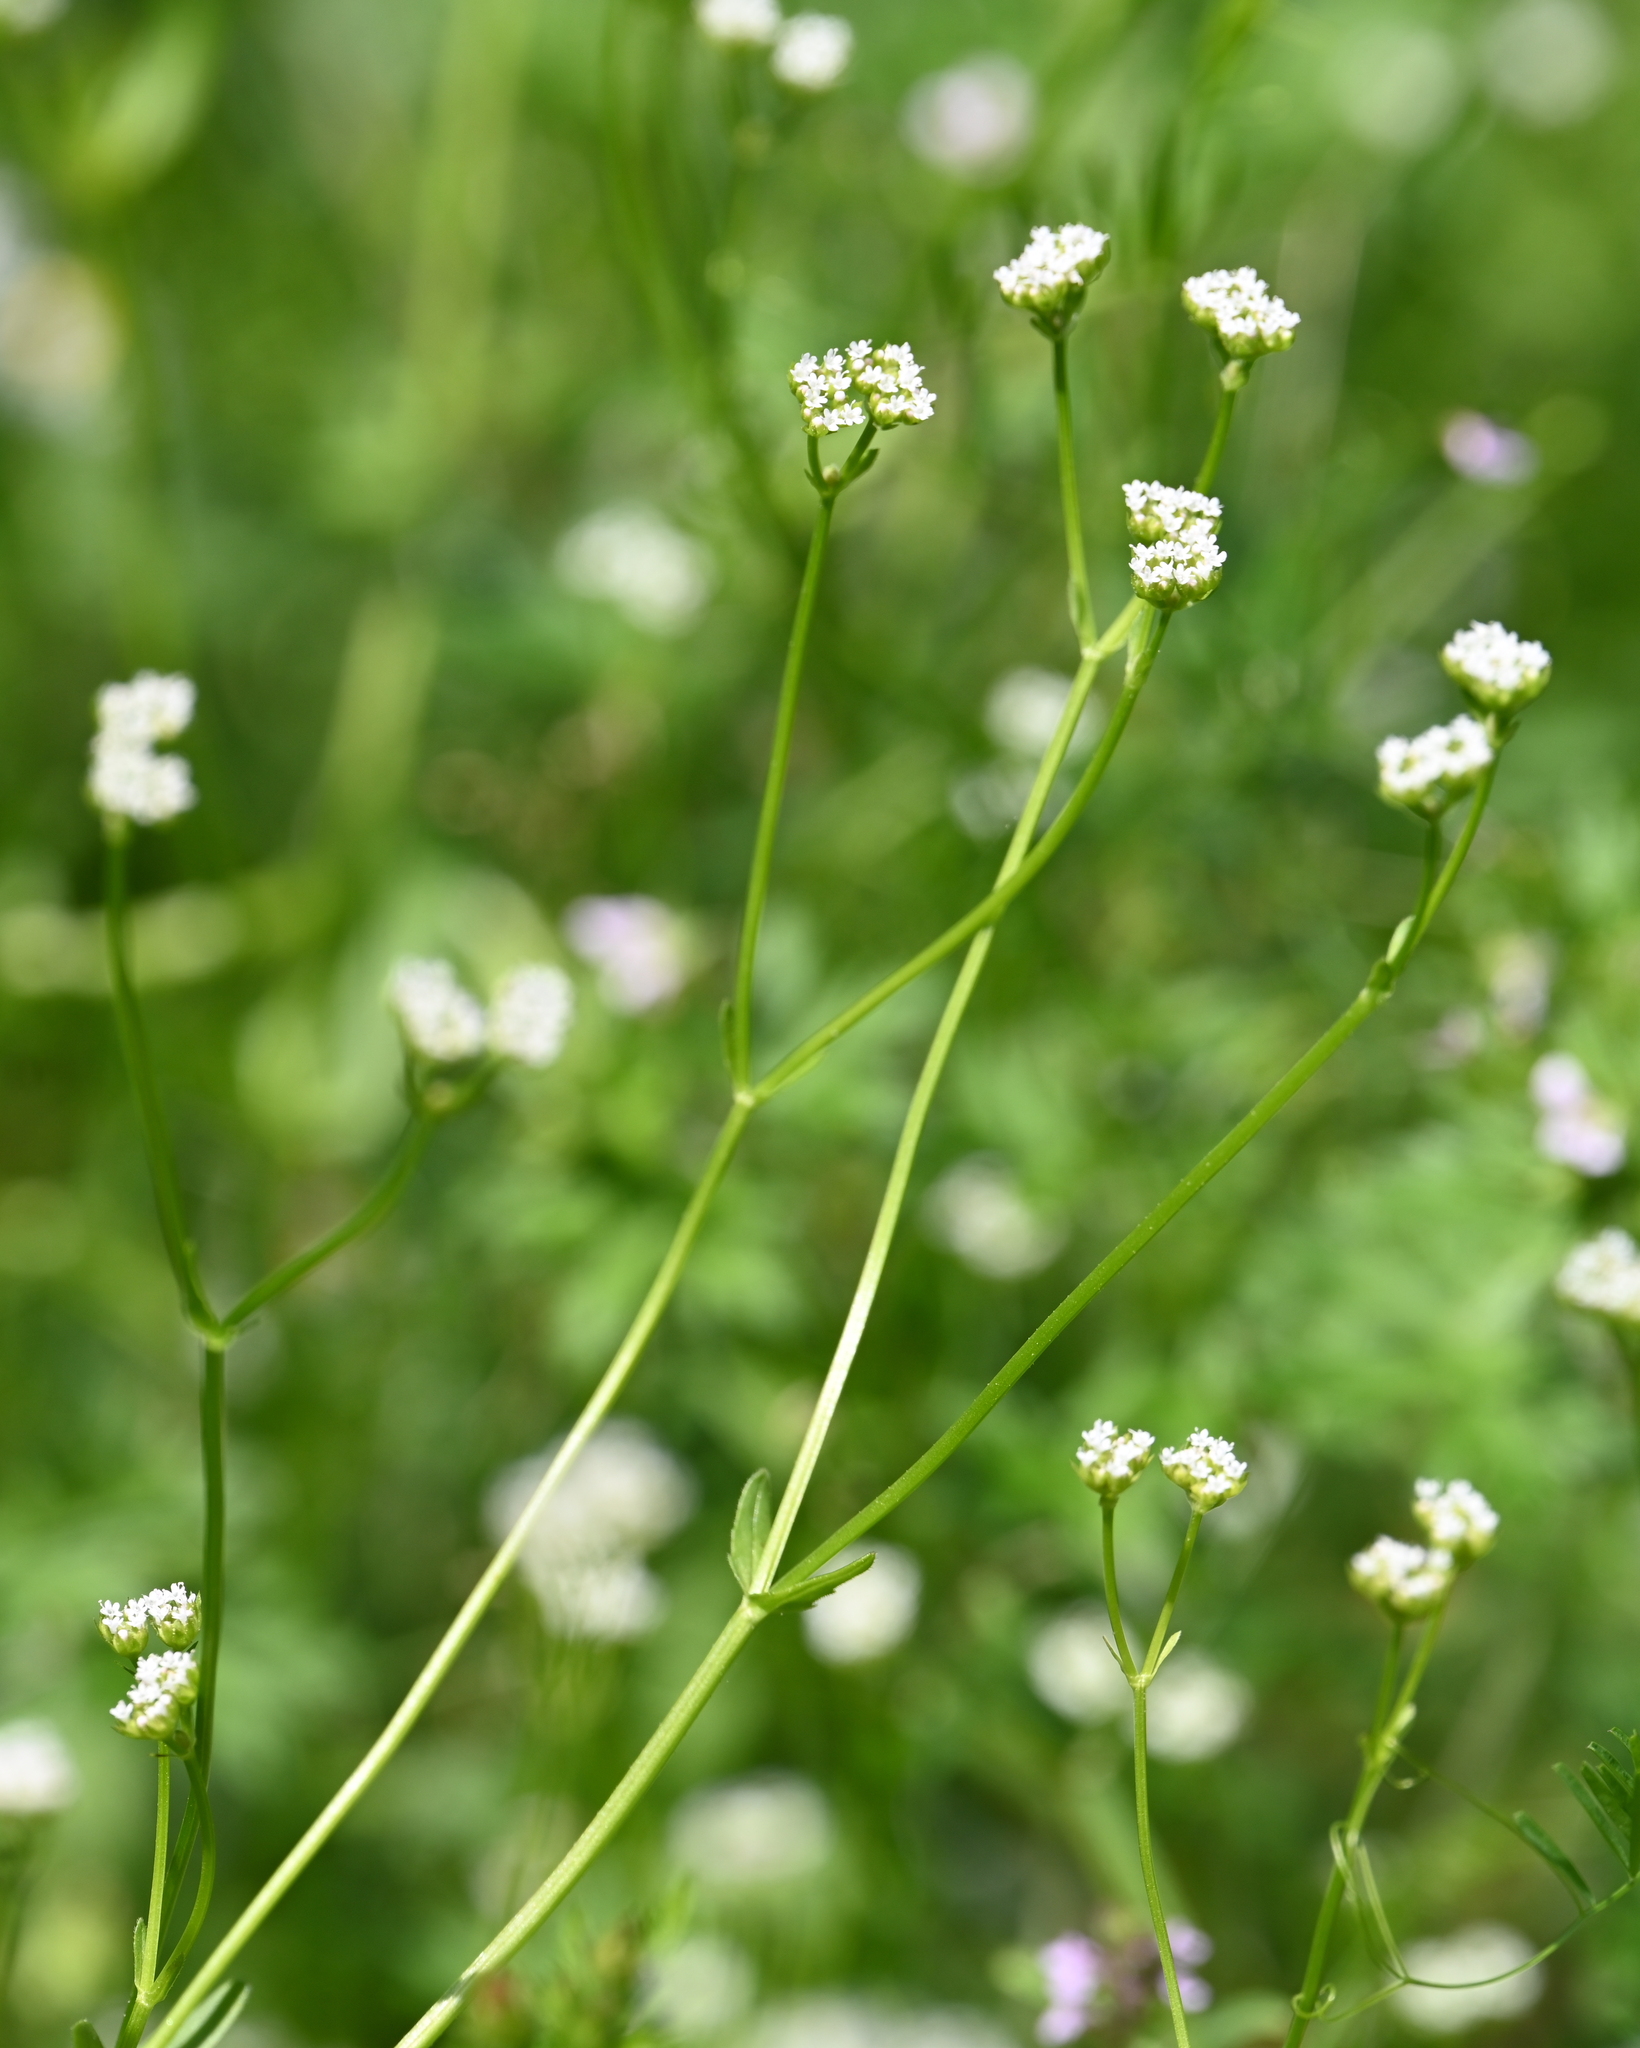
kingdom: Plantae
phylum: Tracheophyta
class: Magnoliopsida
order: Dipsacales
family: Caprifoliaceae
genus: Valerianella
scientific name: Valerianella radiata
